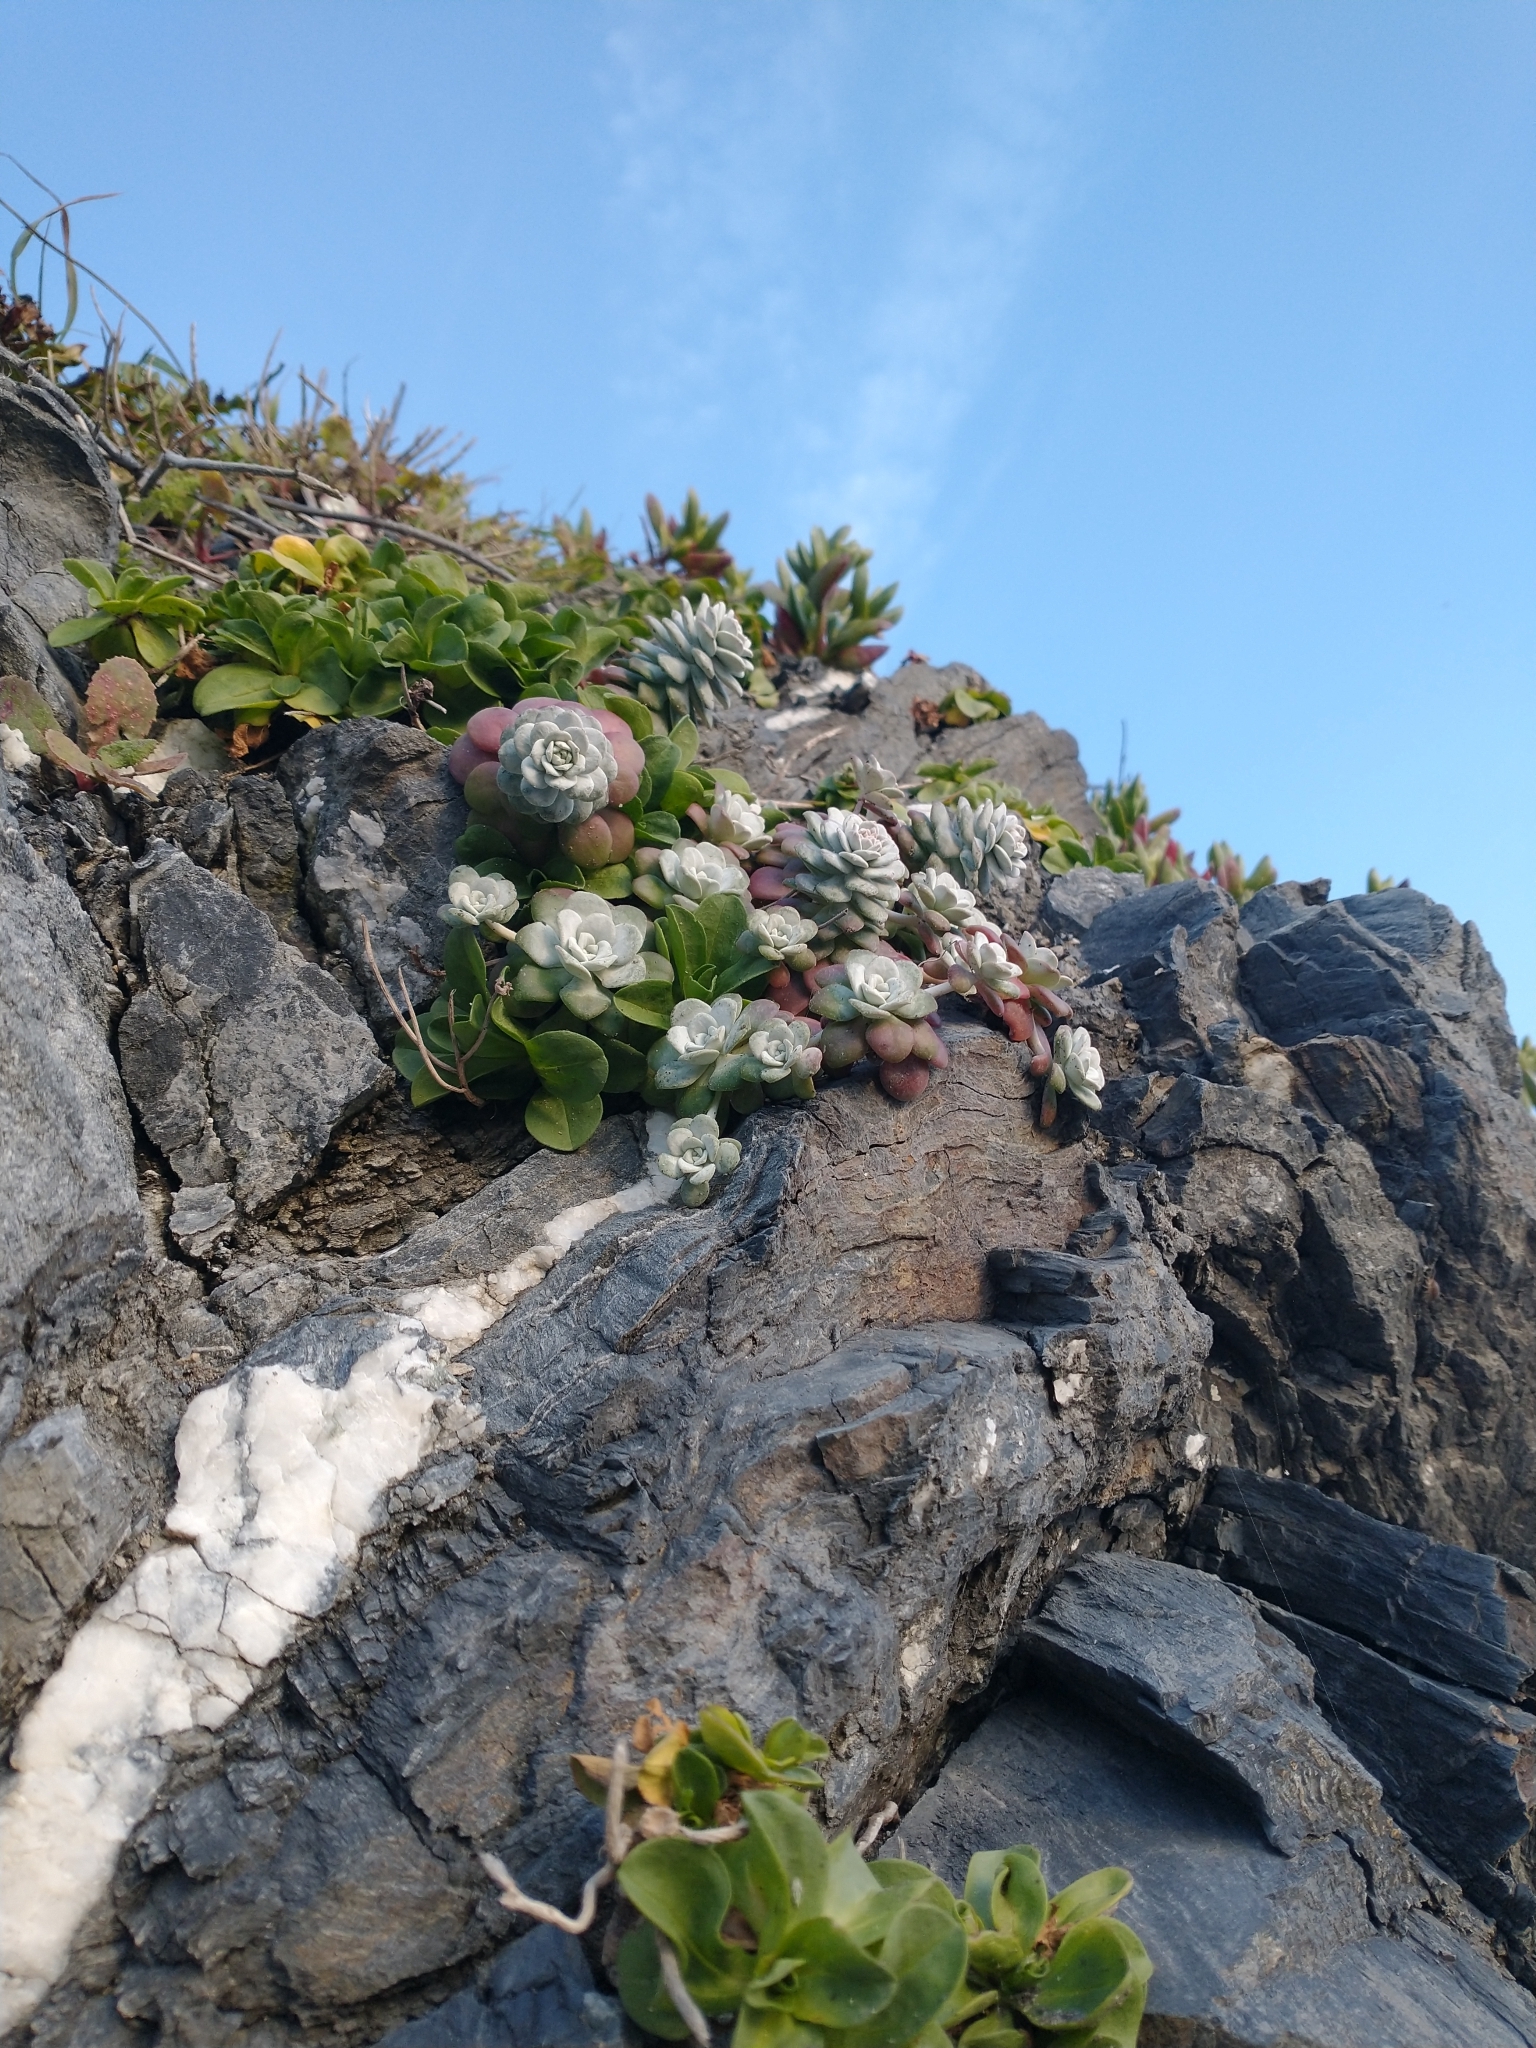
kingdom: Plantae
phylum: Tracheophyta
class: Magnoliopsida
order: Saxifragales
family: Crassulaceae
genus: Sedum
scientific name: Sedum spathulifolium
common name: Colorado stonecrop
